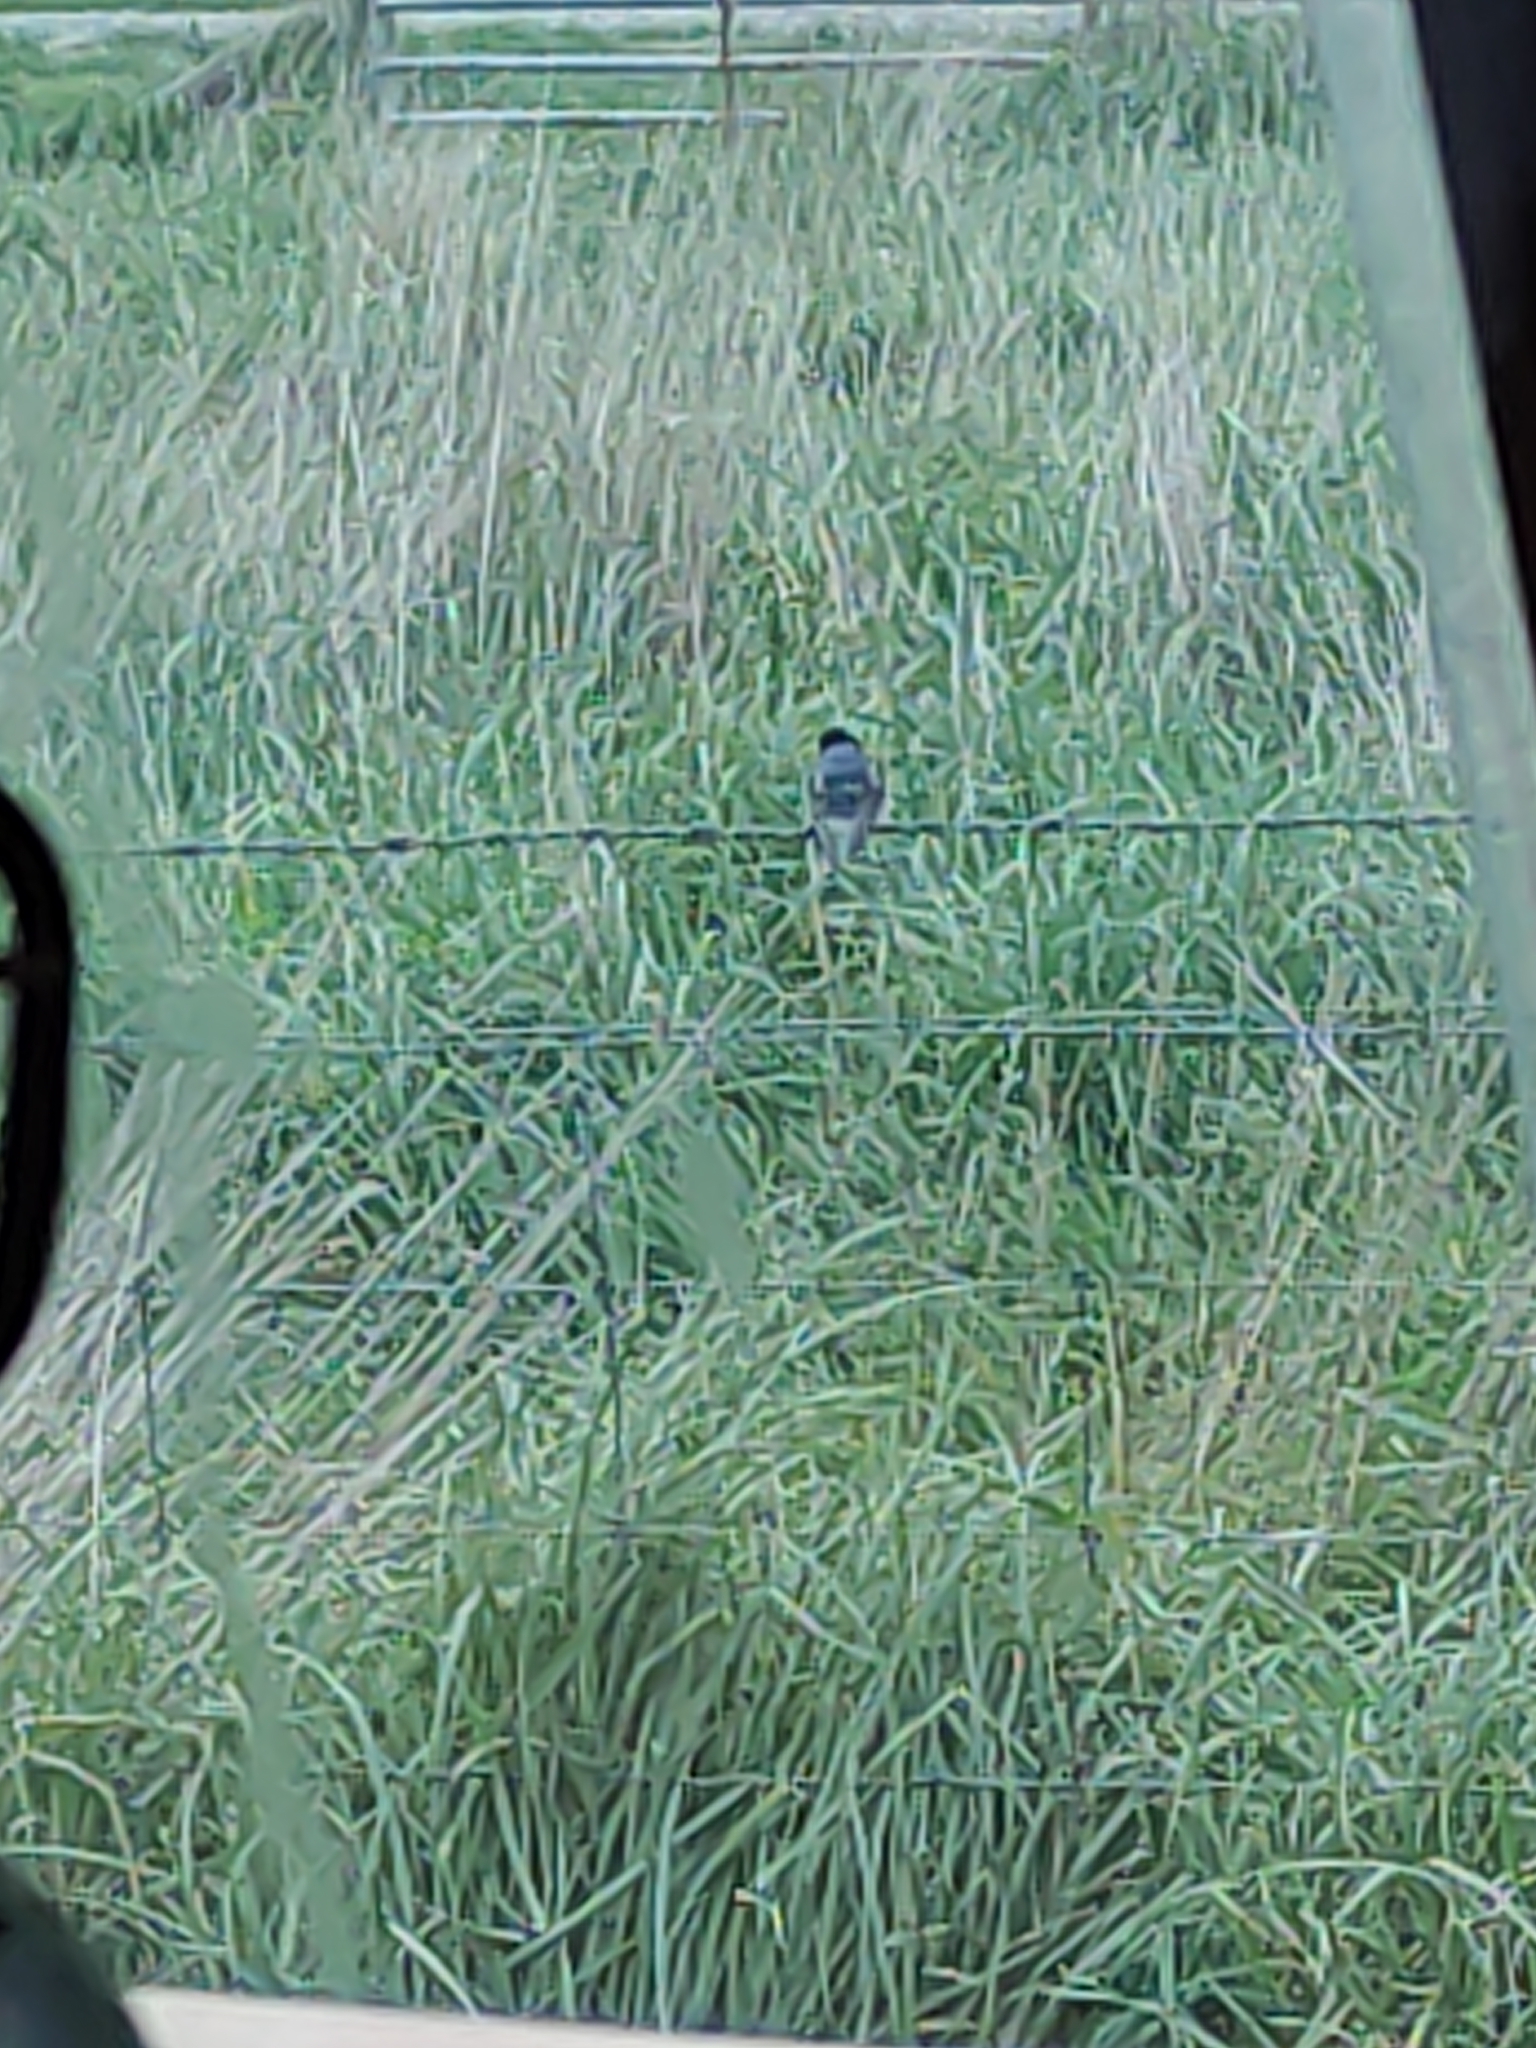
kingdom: Animalia
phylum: Chordata
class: Aves
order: Passeriformes
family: Hirundinidae
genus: Hirundo
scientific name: Hirundo neoxena
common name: Welcome swallow
